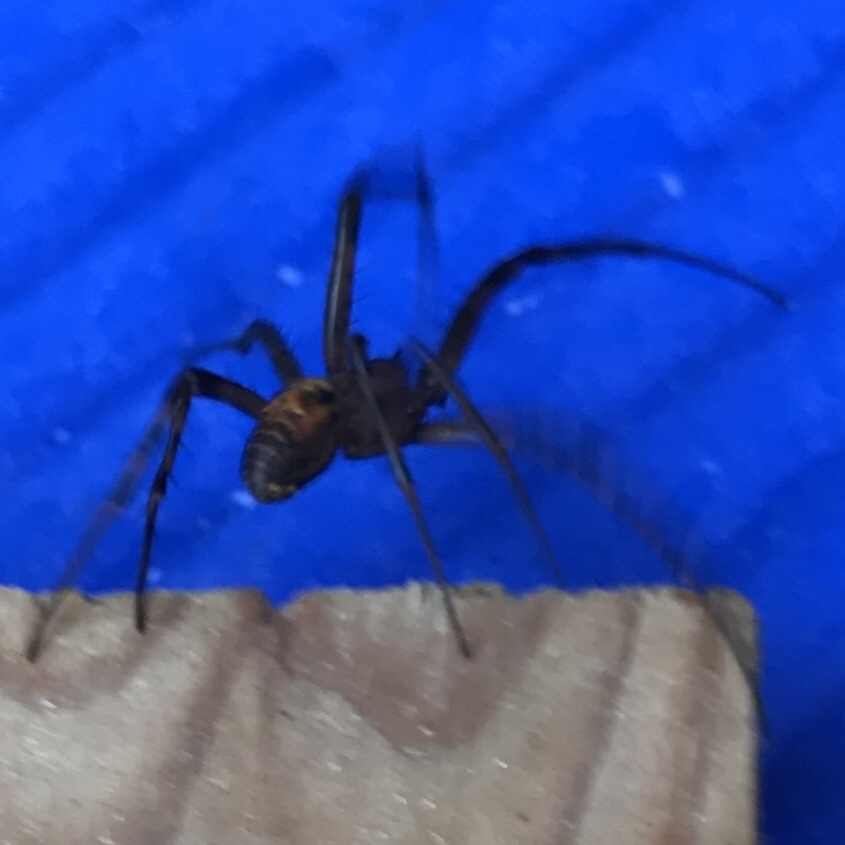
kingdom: Animalia
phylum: Arthropoda
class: Arachnida
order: Araneae
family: Tetragnathidae
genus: Meta
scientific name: Meta menardi
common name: Cave spider
